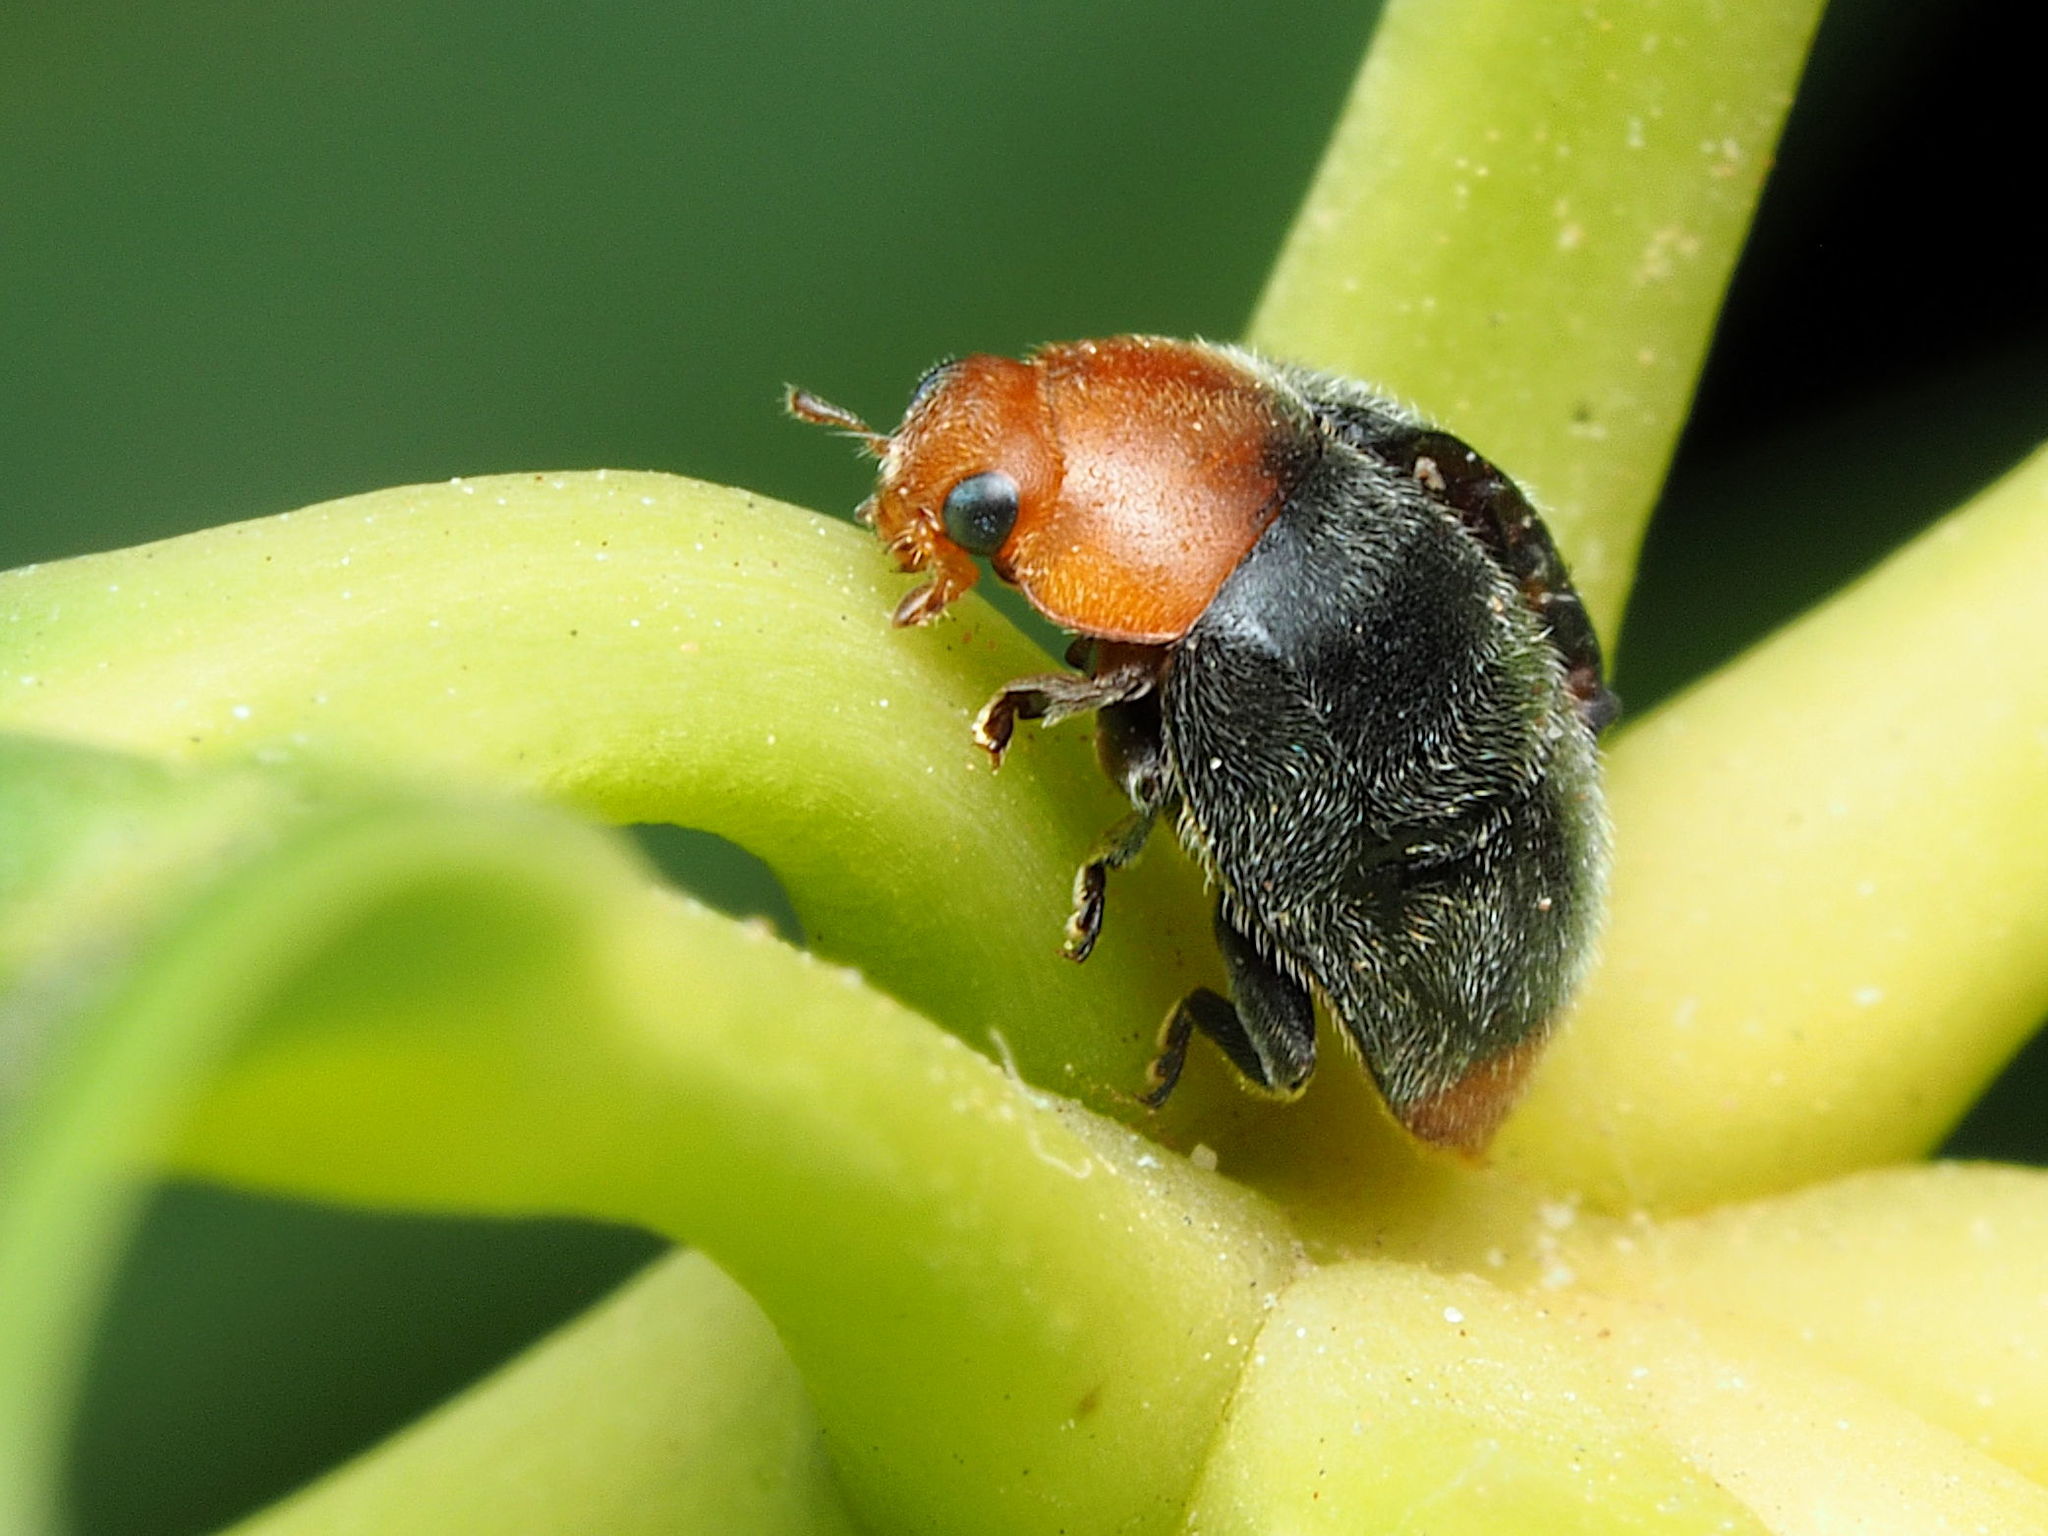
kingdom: Animalia
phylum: Arthropoda
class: Insecta
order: Coleoptera
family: Coccinellidae
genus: Cryptolaemus
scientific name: Cryptolaemus montrouzieri
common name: Mealybug destroyer
